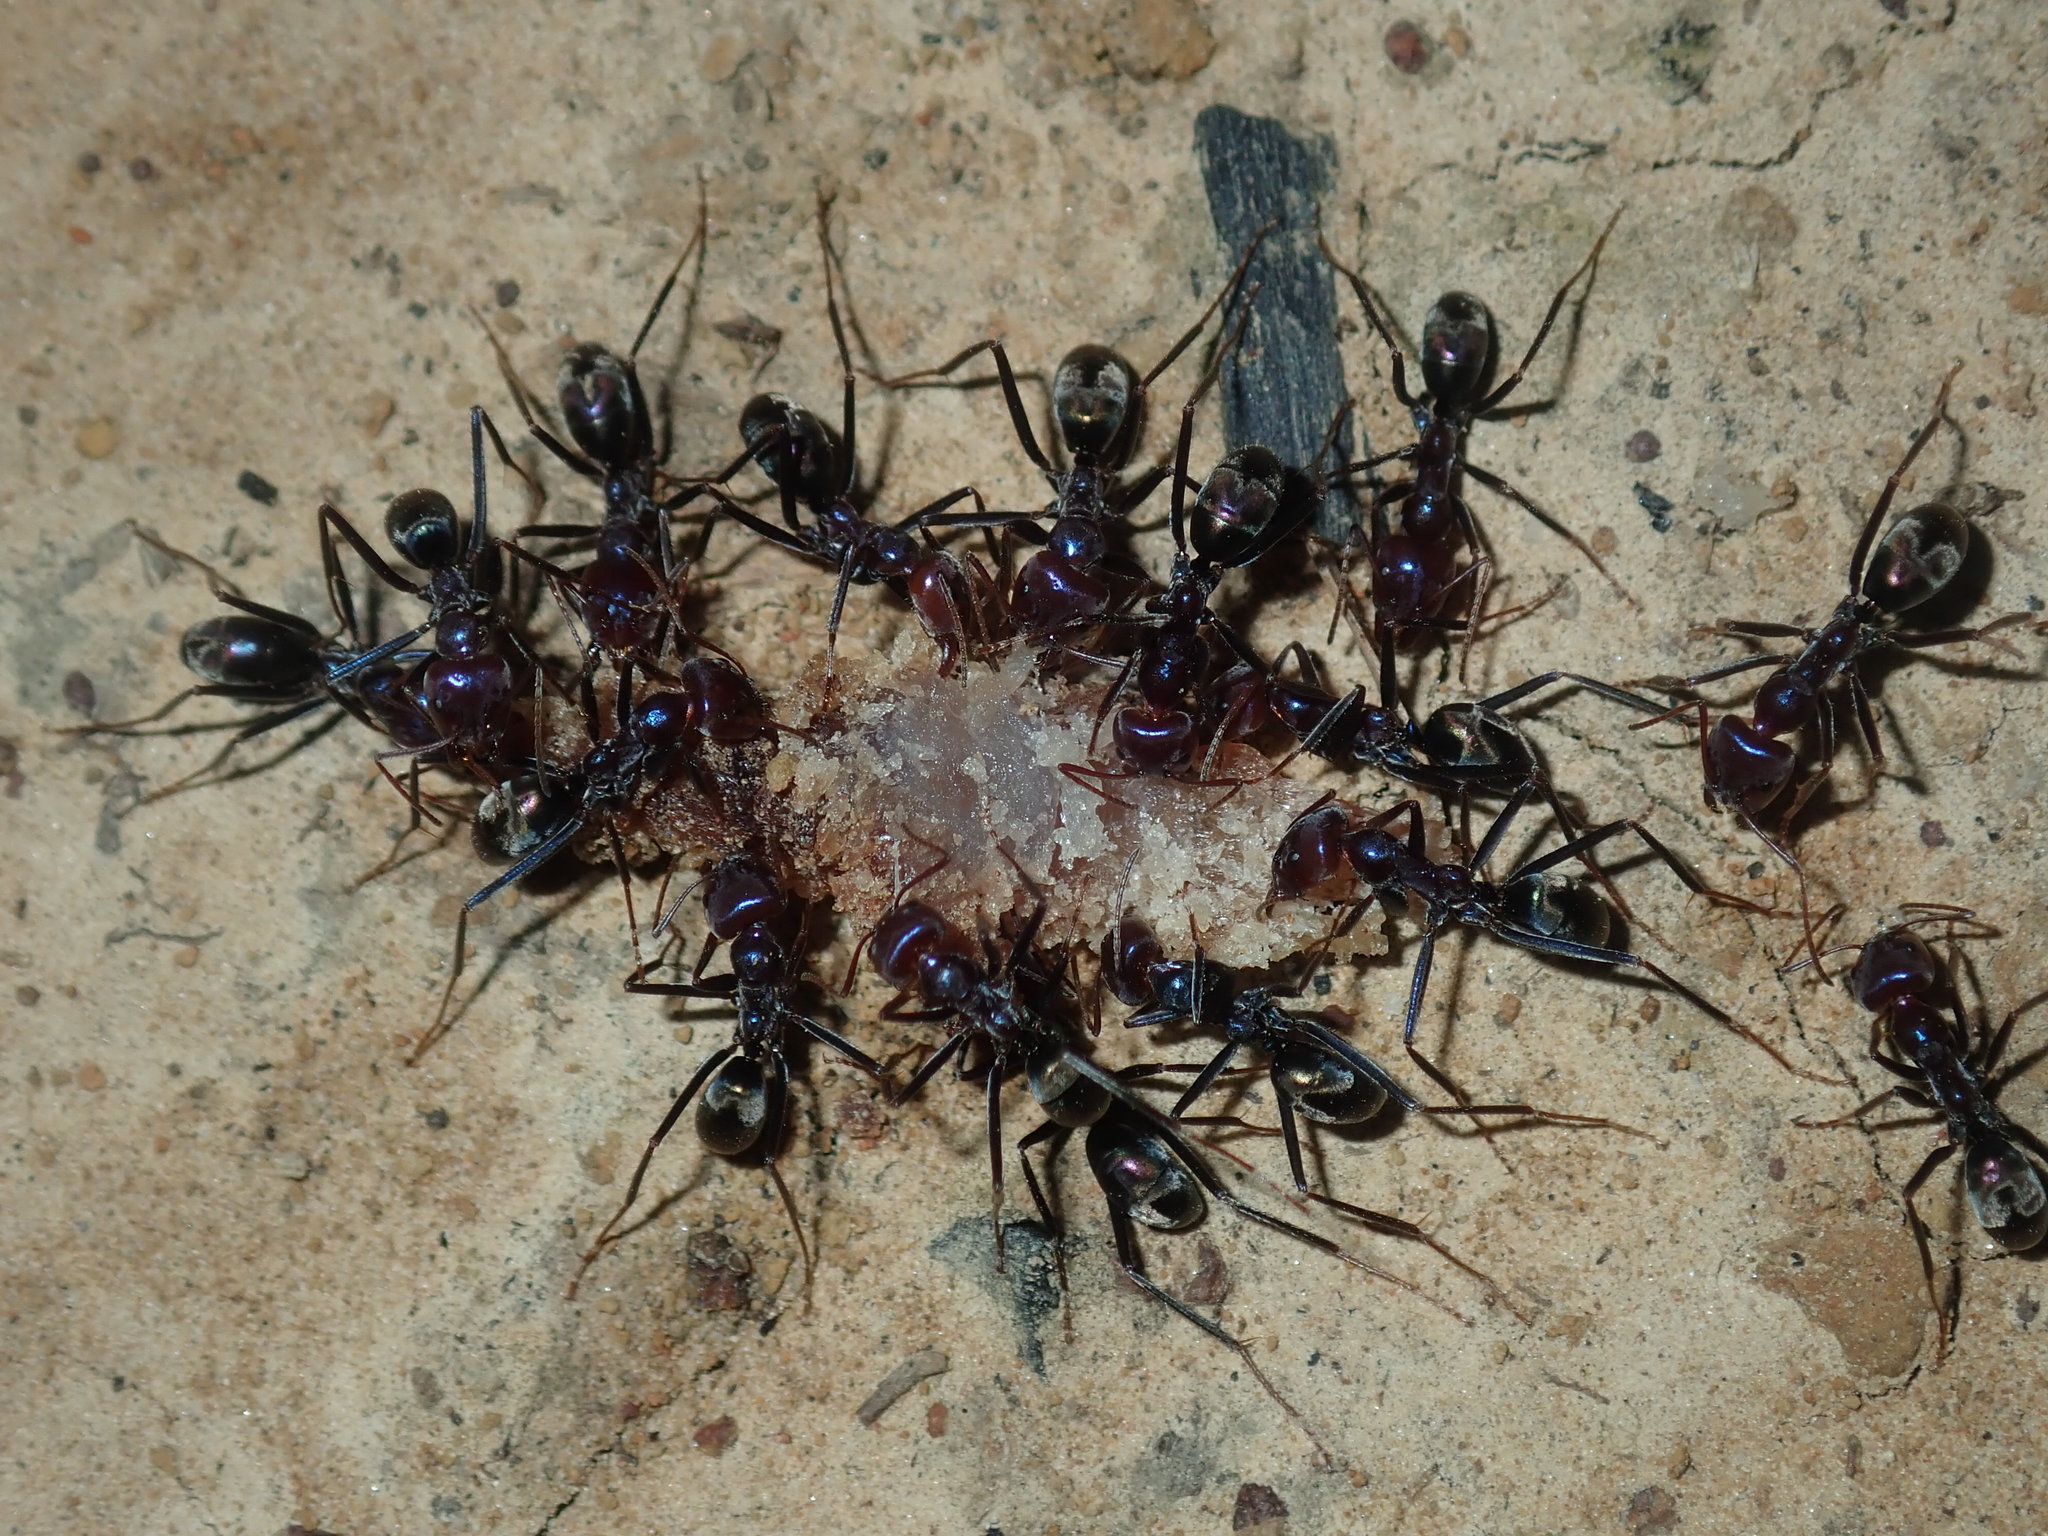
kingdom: Animalia
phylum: Arthropoda
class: Insecta
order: Hymenoptera
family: Formicidae
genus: Iridomyrmex
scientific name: Iridomyrmex purpureus
